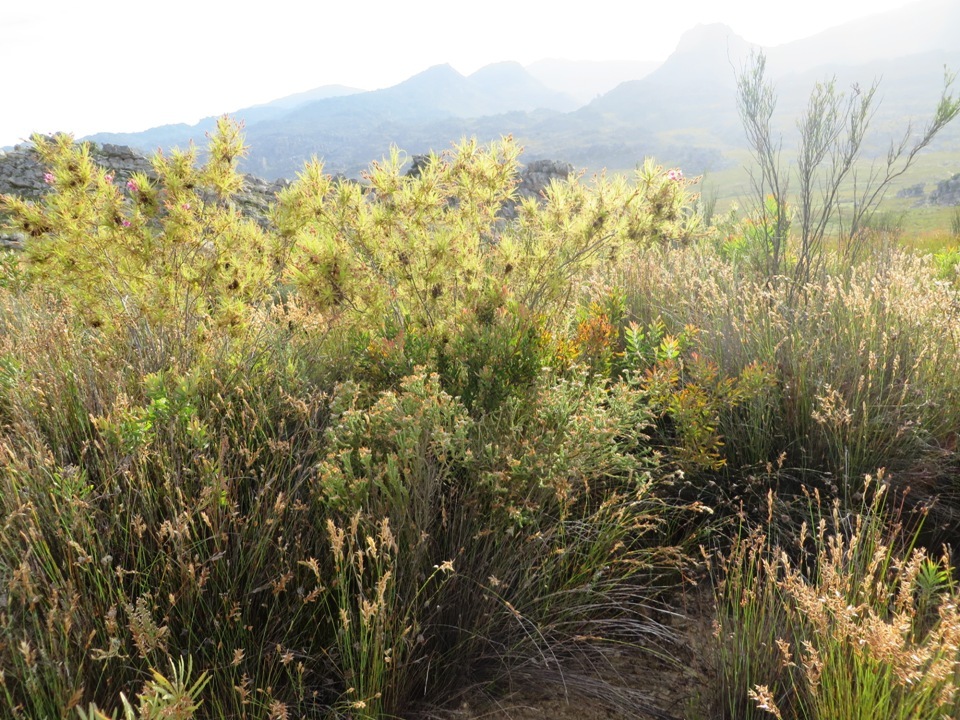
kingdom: Plantae
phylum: Tracheophyta
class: Magnoliopsida
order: Ericales
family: Roridulaceae
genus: Roridula
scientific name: Roridula dentata
